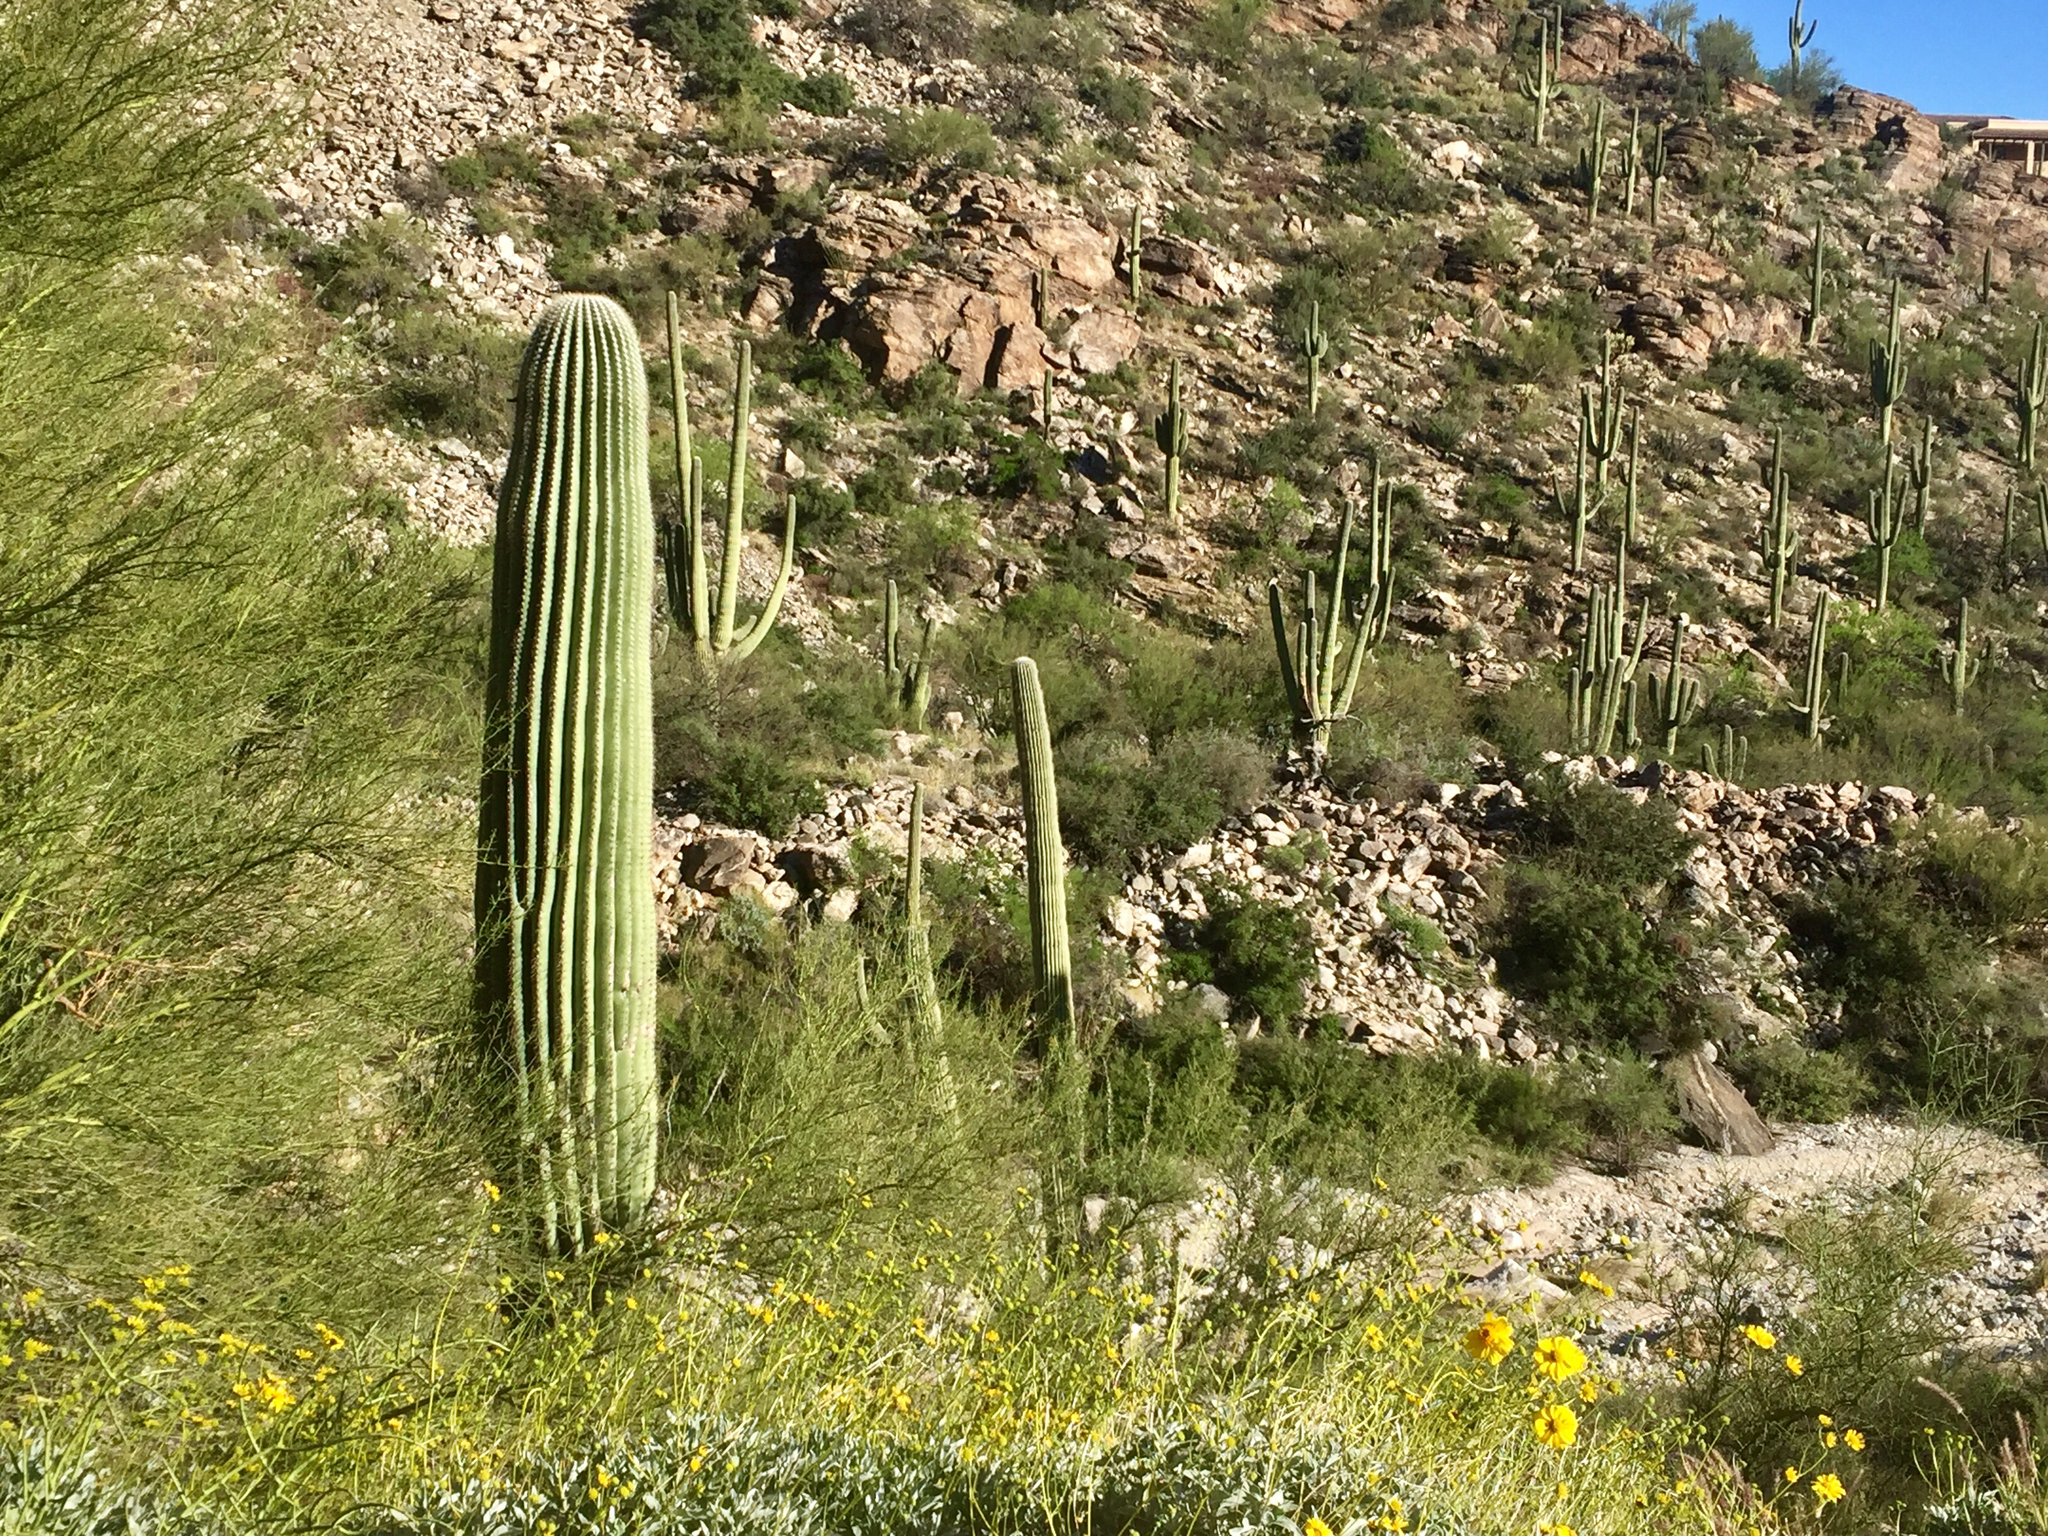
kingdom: Plantae
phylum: Tracheophyta
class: Magnoliopsida
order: Caryophyllales
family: Cactaceae
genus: Carnegiea
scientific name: Carnegiea gigantea
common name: Saguaro
